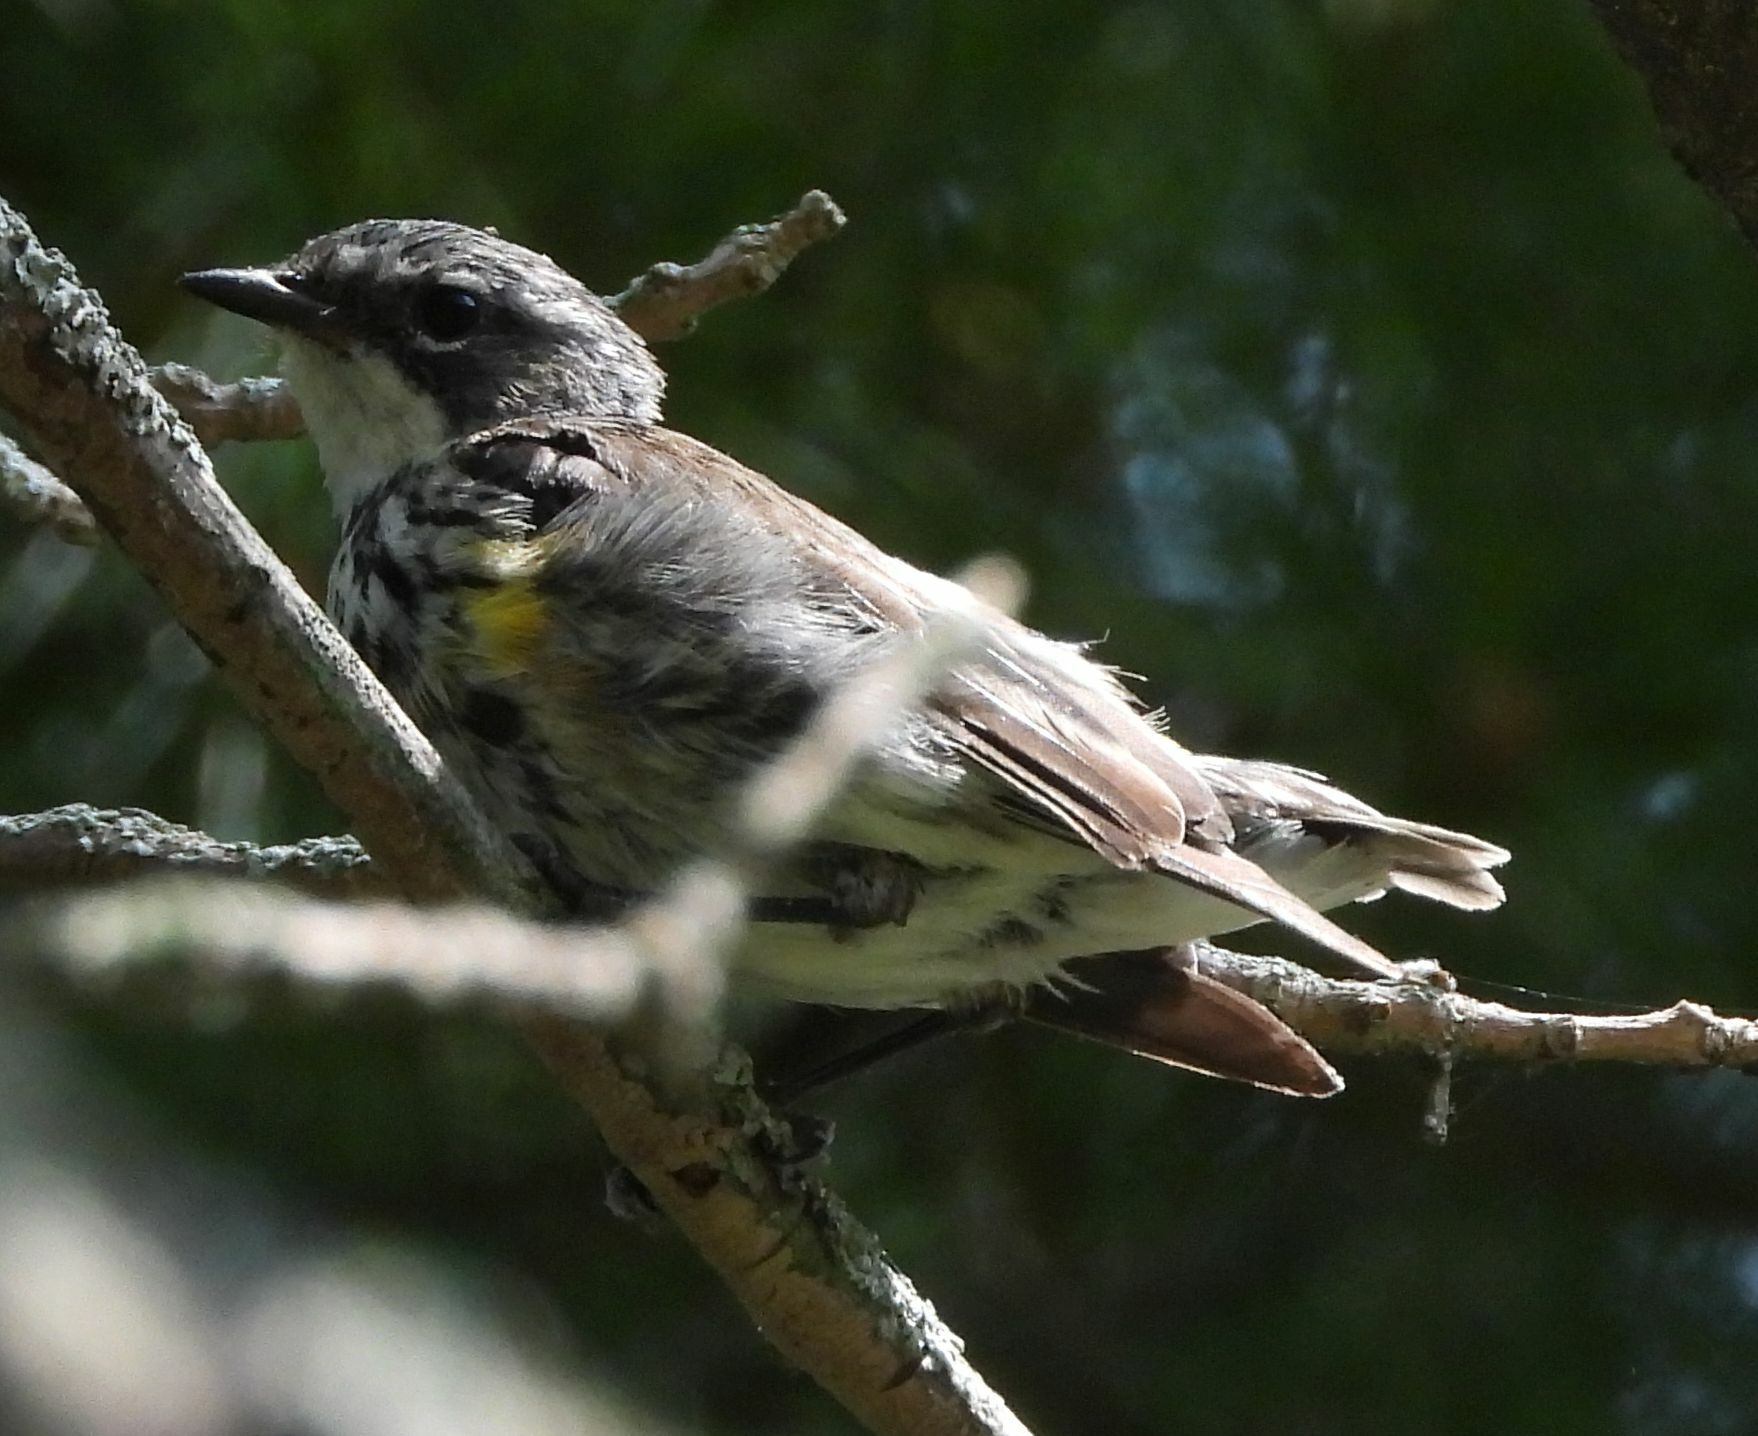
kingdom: Animalia
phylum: Chordata
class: Aves
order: Passeriformes
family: Parulidae
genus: Setophaga
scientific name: Setophaga coronata
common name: Myrtle warbler
